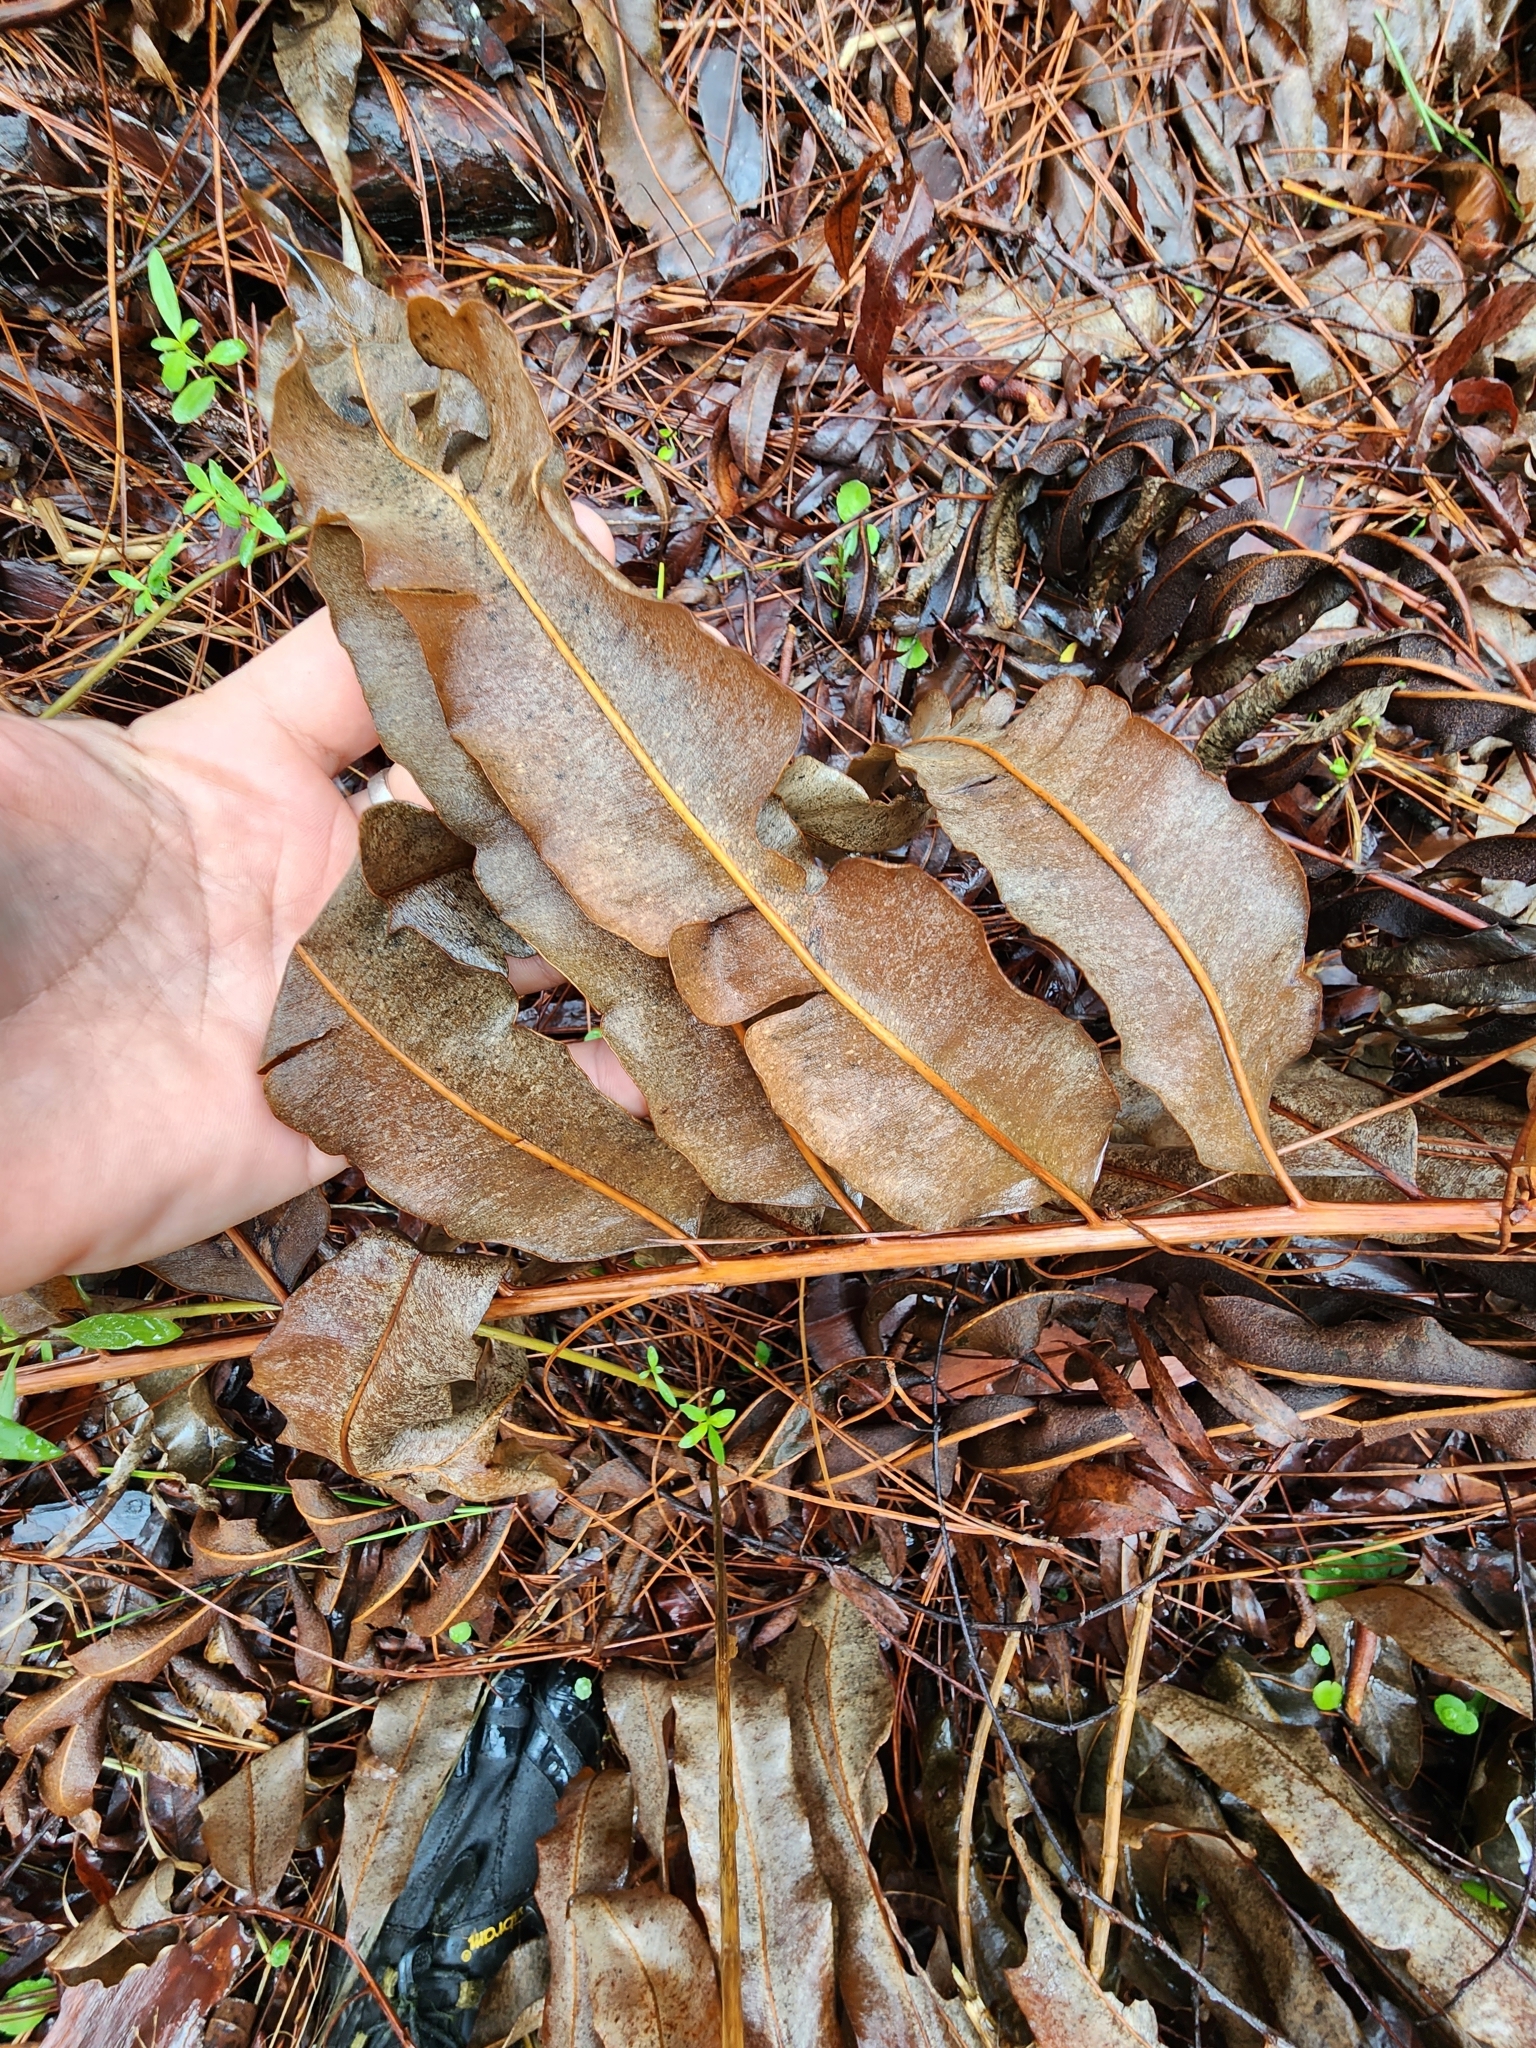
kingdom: Plantae
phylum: Tracheophyta
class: Polypodiopsida
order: Polypodiales
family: Pteridaceae
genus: Acrostichum
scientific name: Acrostichum danaeifolium
